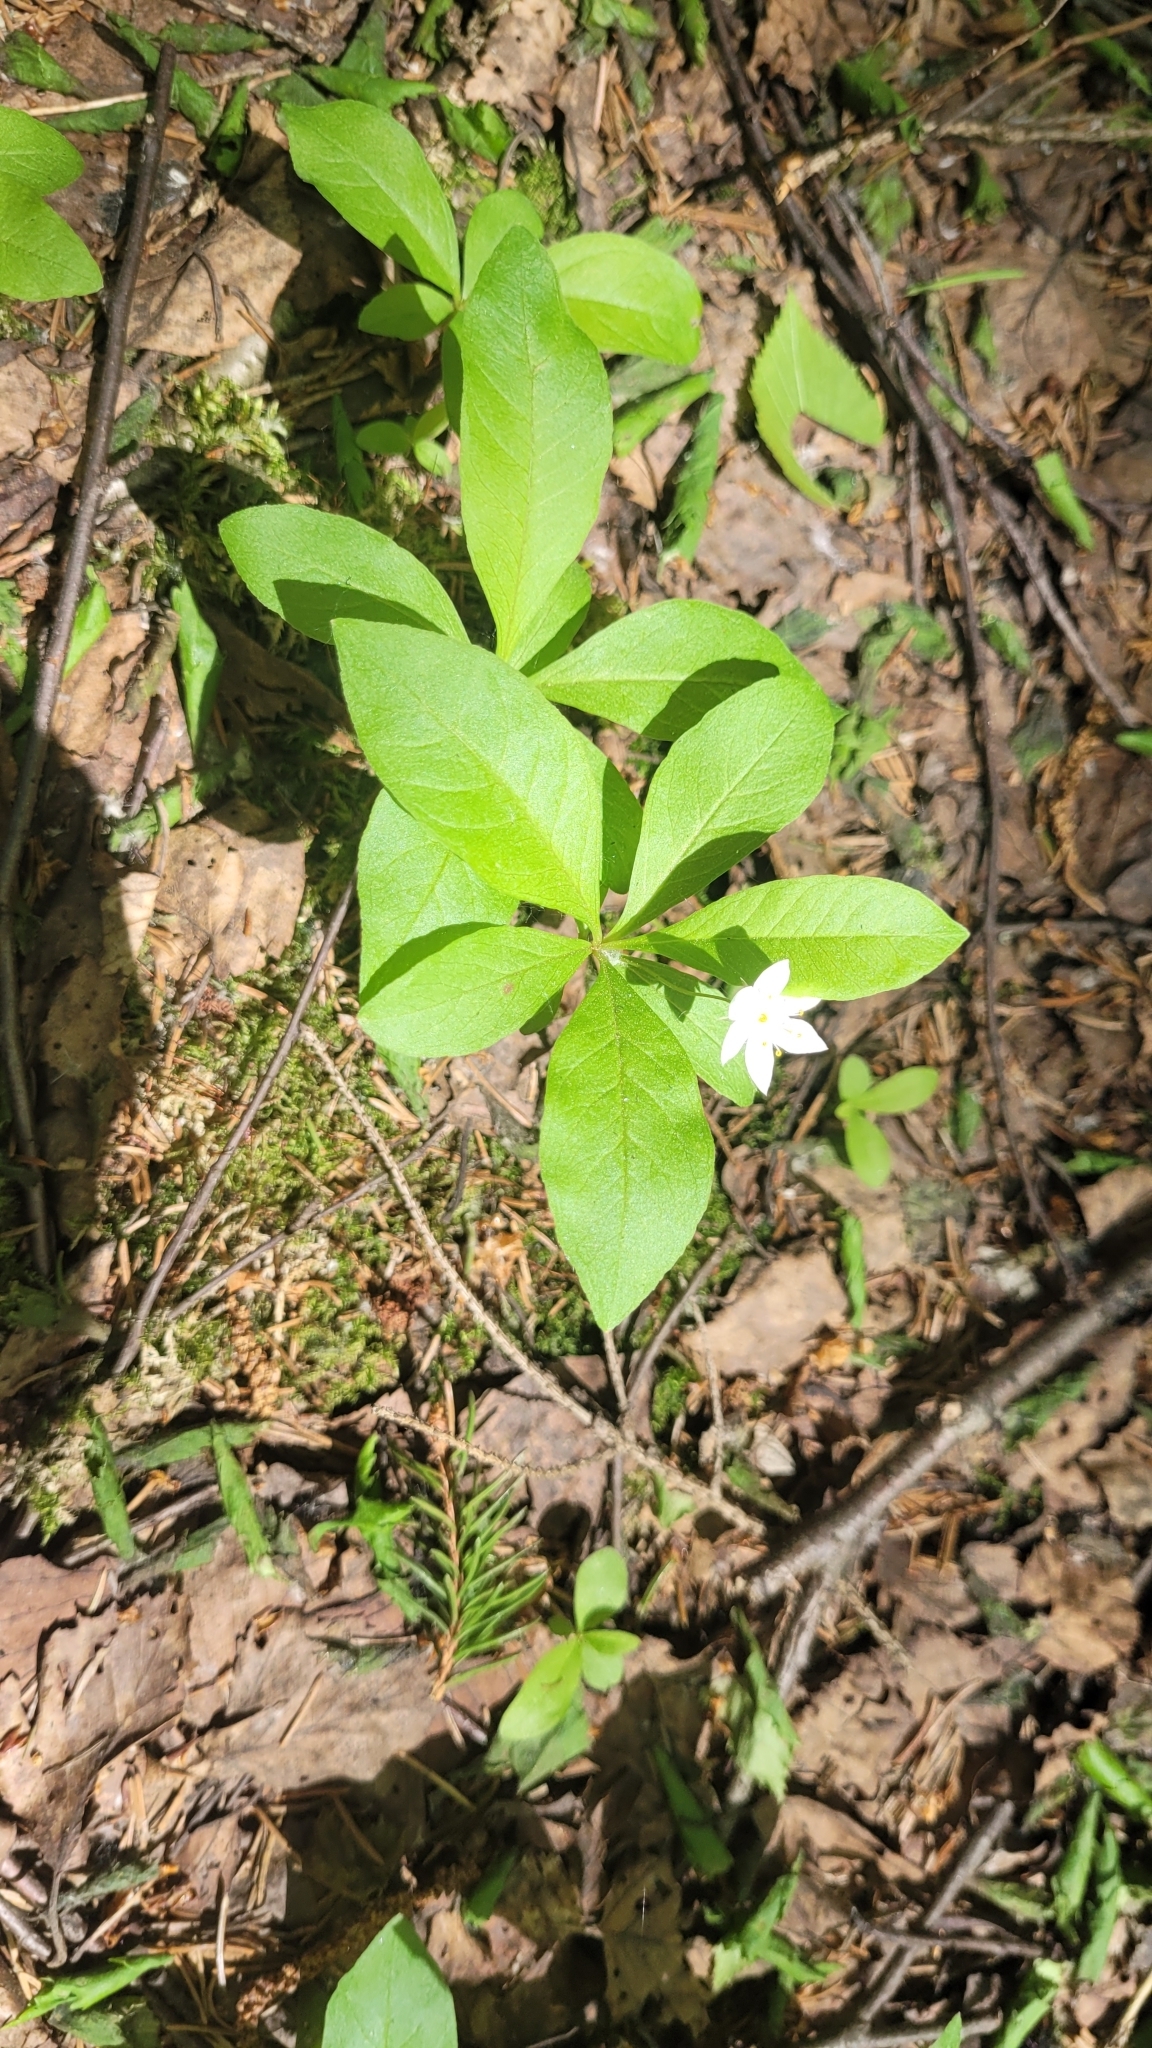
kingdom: Plantae
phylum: Tracheophyta
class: Magnoliopsida
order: Ericales
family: Primulaceae
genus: Lysimachia
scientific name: Lysimachia europaea
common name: Arctic starflower
